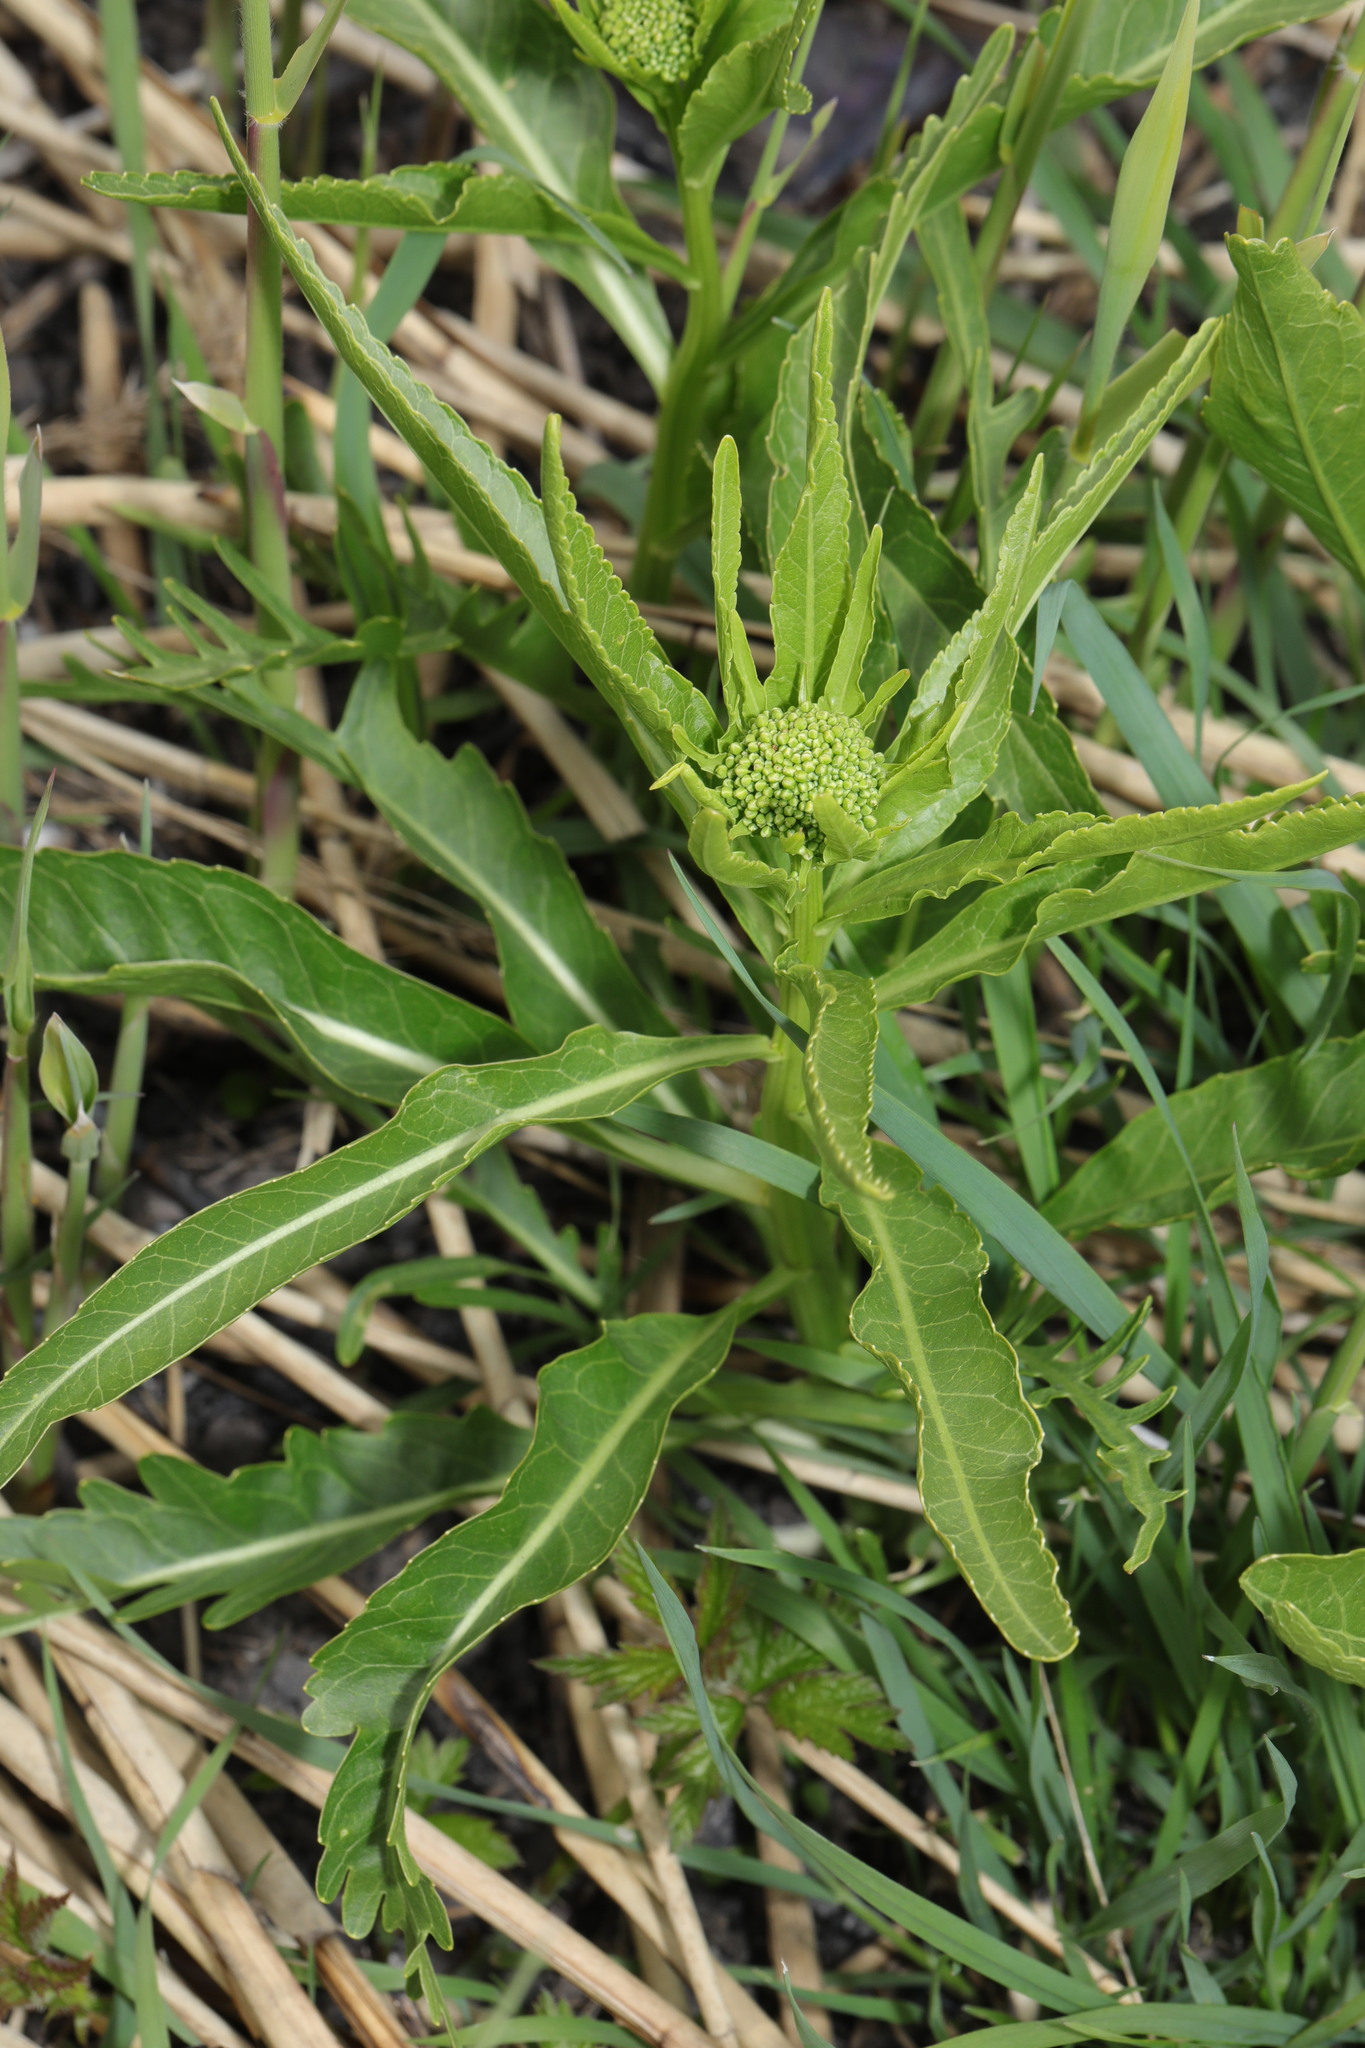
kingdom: Plantae
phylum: Tracheophyta
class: Magnoliopsida
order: Brassicales
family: Brassicaceae
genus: Armoracia
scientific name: Armoracia rusticana
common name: Horseradish
